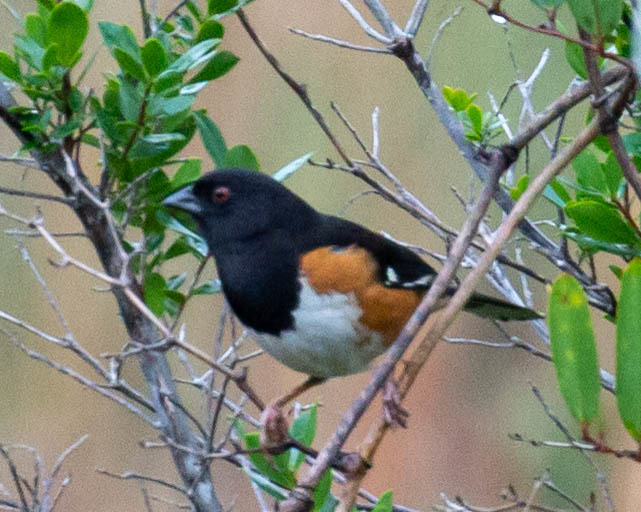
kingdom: Animalia
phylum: Chordata
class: Aves
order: Passeriformes
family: Passerellidae
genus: Pipilo
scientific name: Pipilo erythrophthalmus
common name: Eastern towhee
